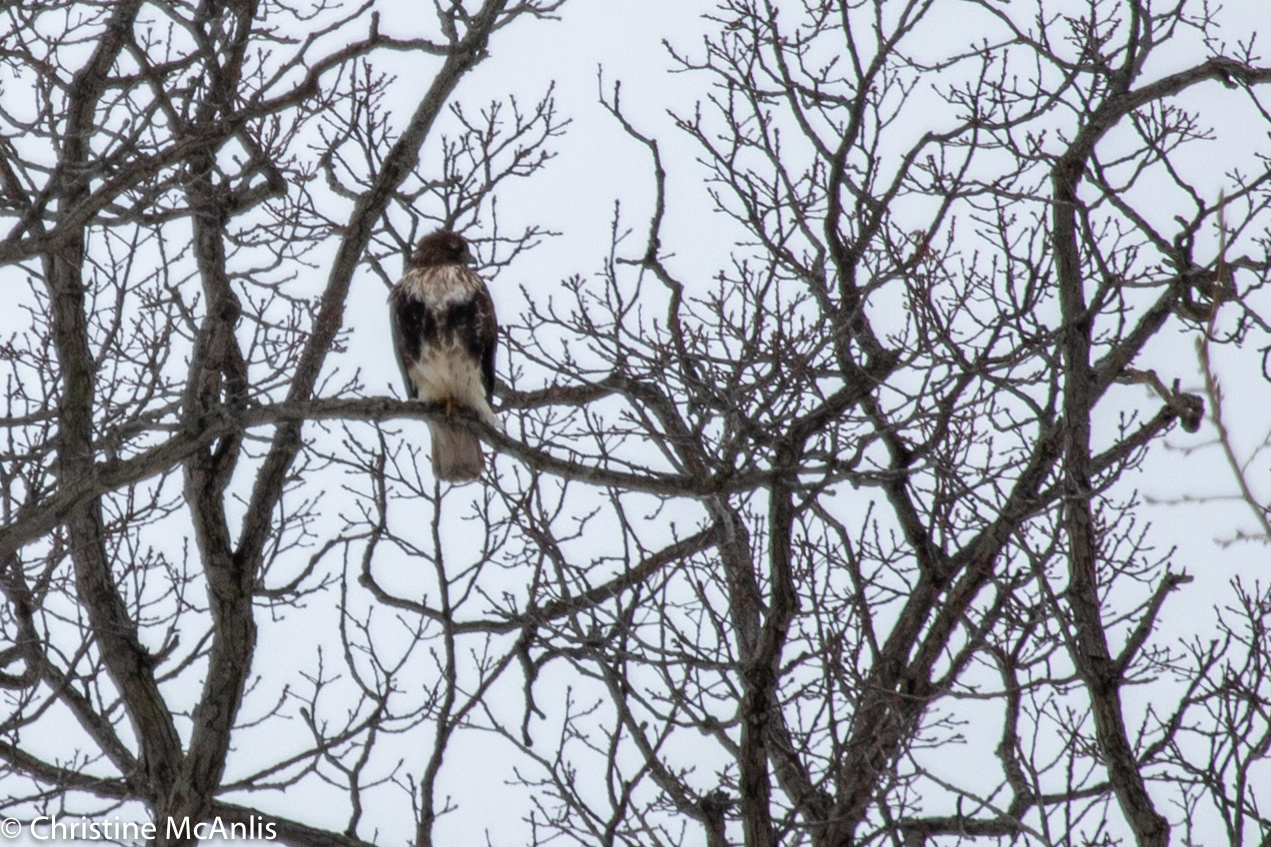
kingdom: Animalia
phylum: Chordata
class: Aves
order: Accipitriformes
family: Accipitridae
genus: Buteo
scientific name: Buteo jamaicensis
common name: Red-tailed hawk
